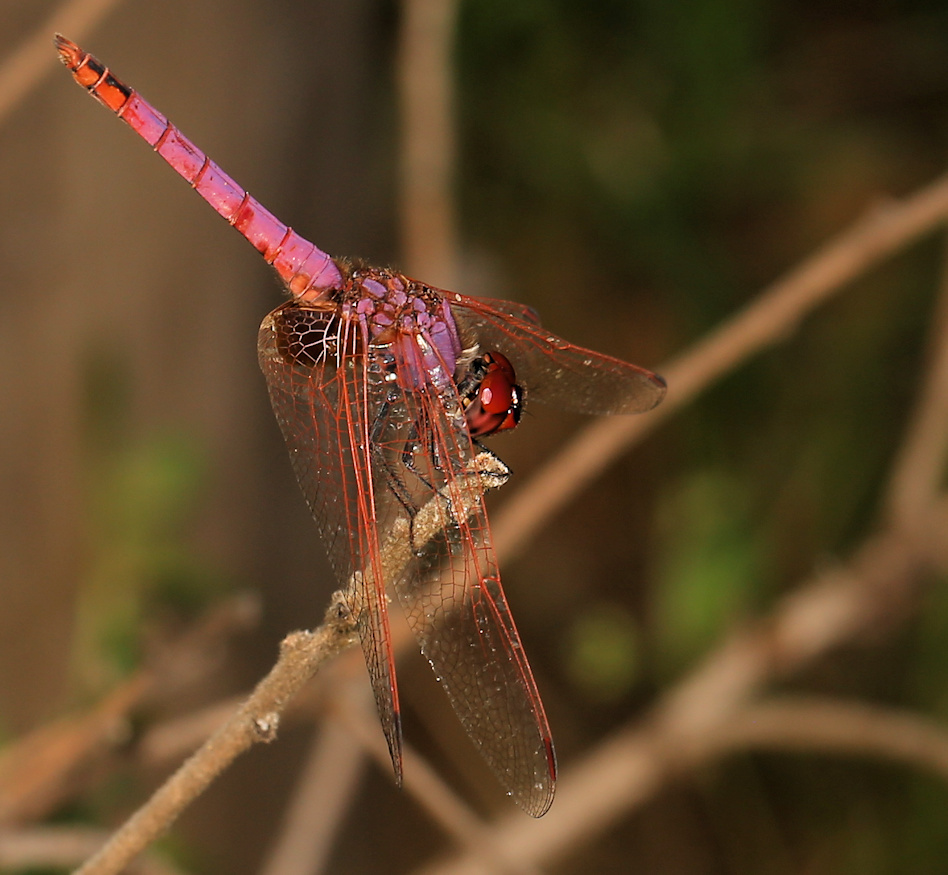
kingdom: Animalia
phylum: Arthropoda
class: Insecta
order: Odonata
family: Libellulidae
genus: Trithemis
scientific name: Trithemis annulata
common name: Violet dropwing
